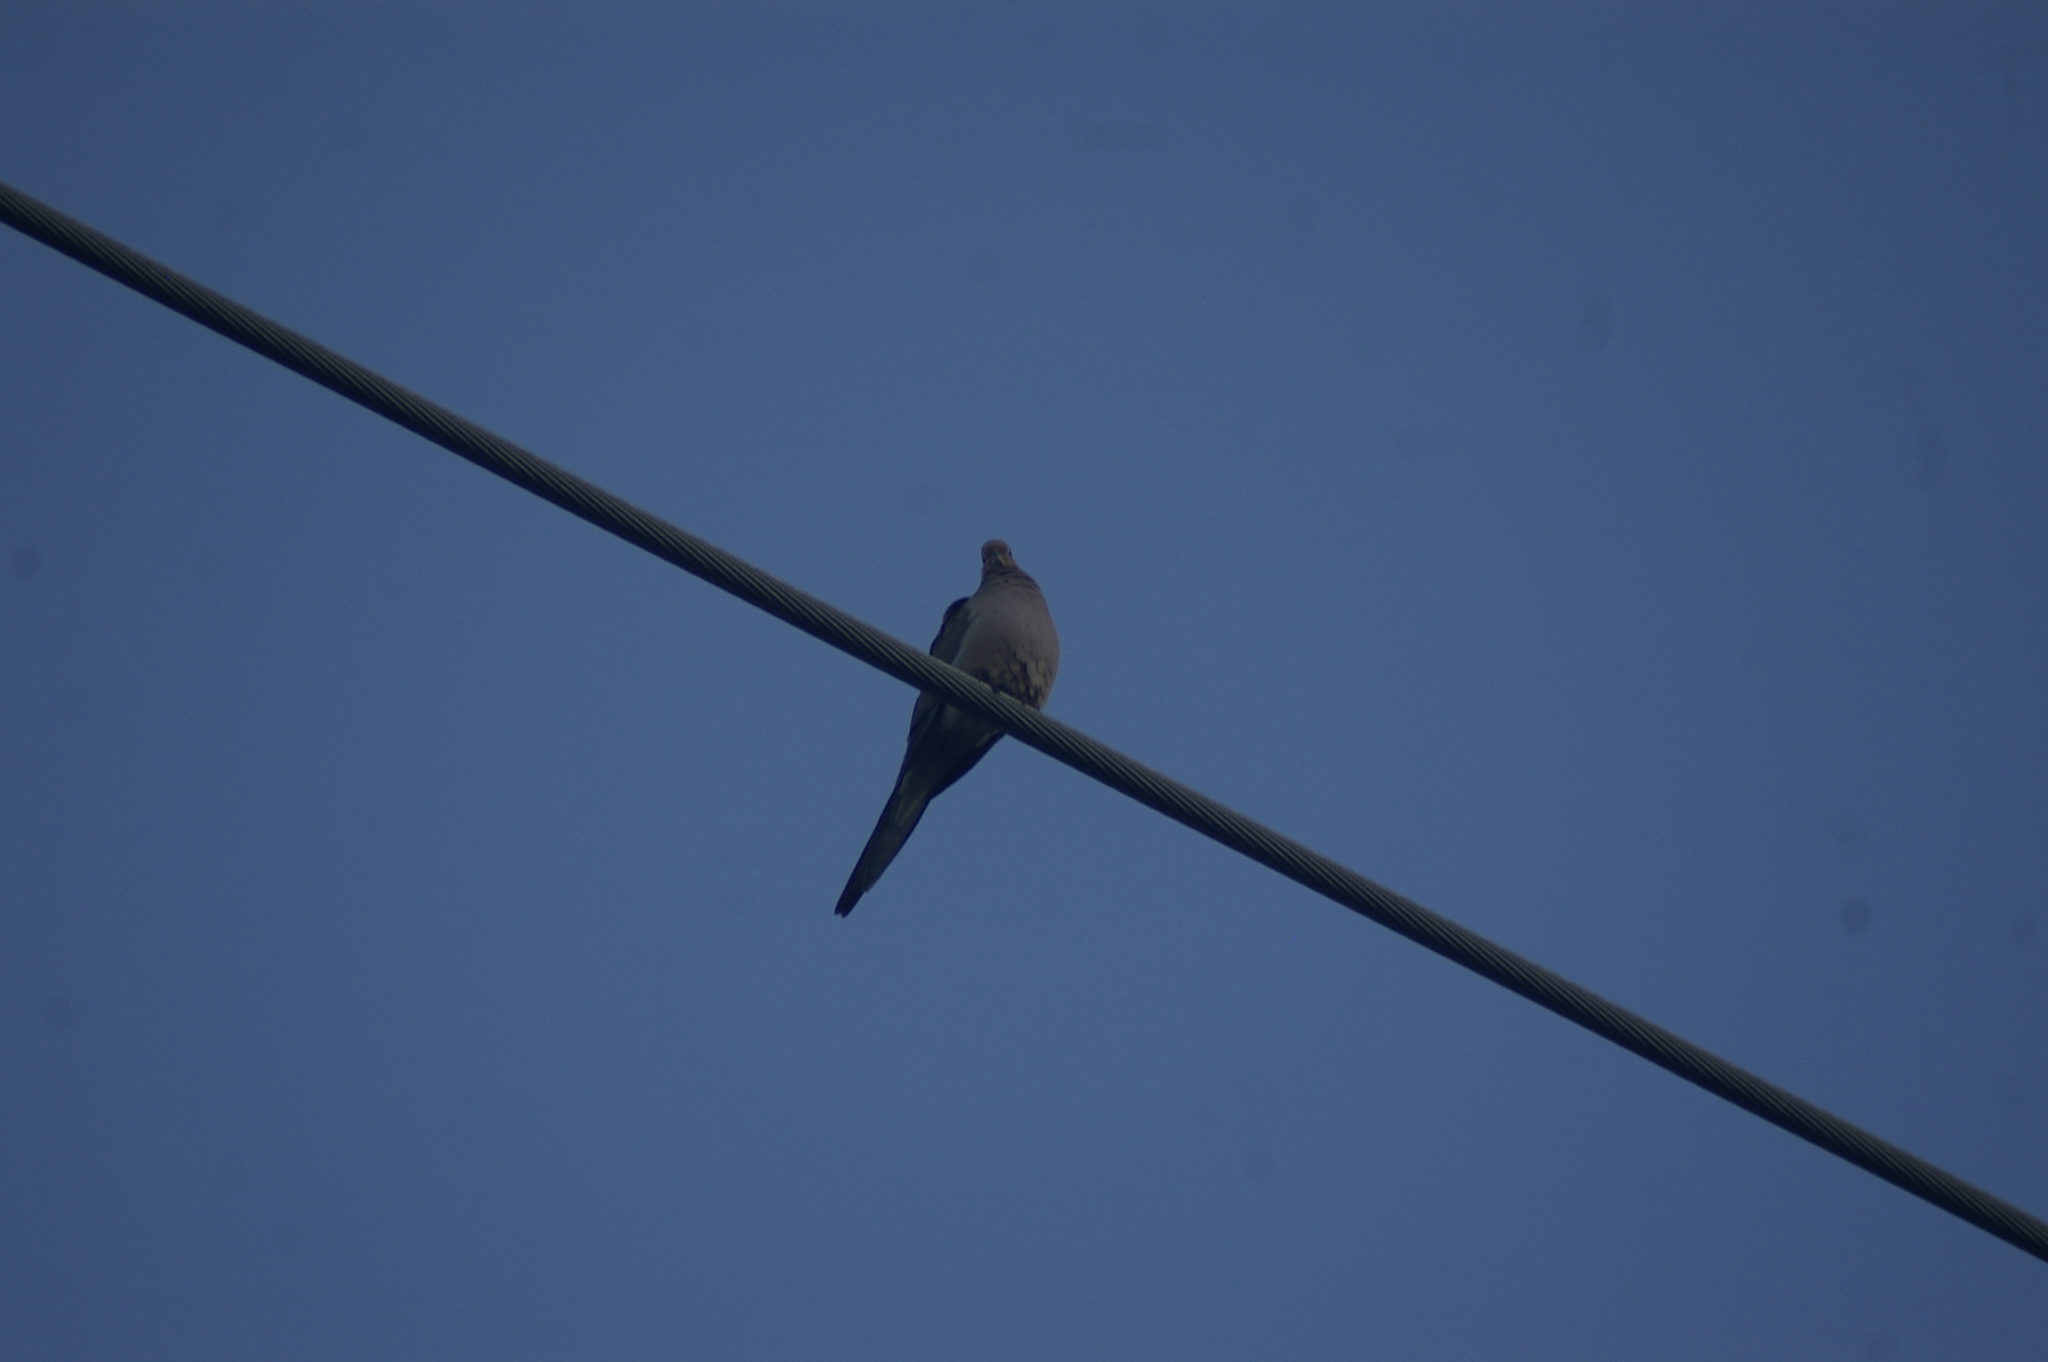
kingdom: Animalia
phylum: Chordata
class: Aves
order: Columbiformes
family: Columbidae
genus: Zenaida
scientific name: Zenaida macroura
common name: Mourning dove
